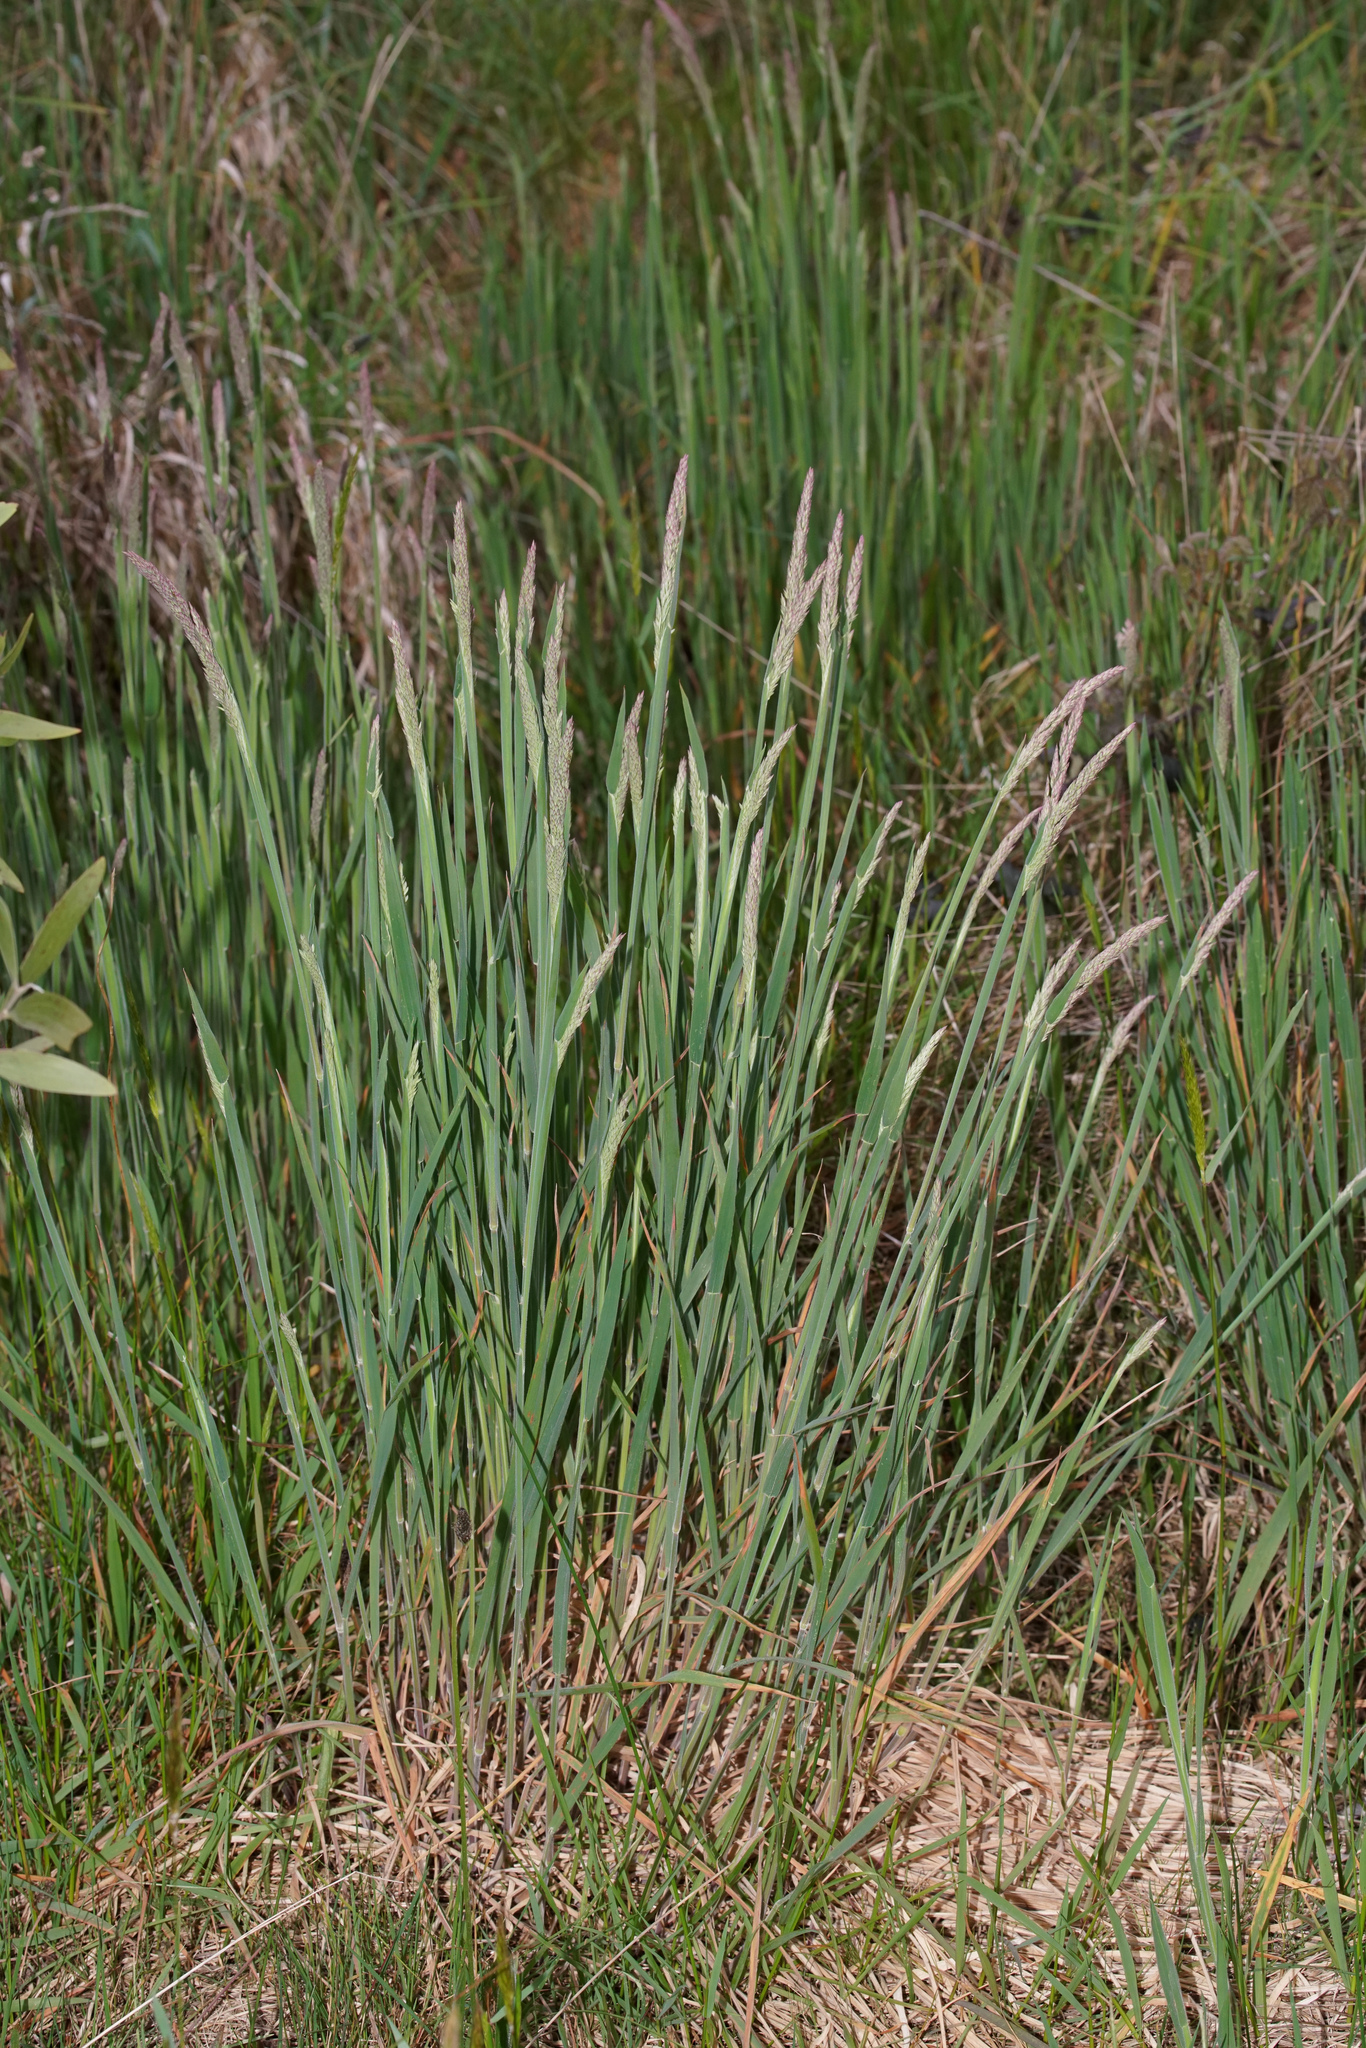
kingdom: Plantae
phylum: Tracheophyta
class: Liliopsida
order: Poales
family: Poaceae
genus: Holcus
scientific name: Holcus lanatus
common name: Yorkshire-fog
